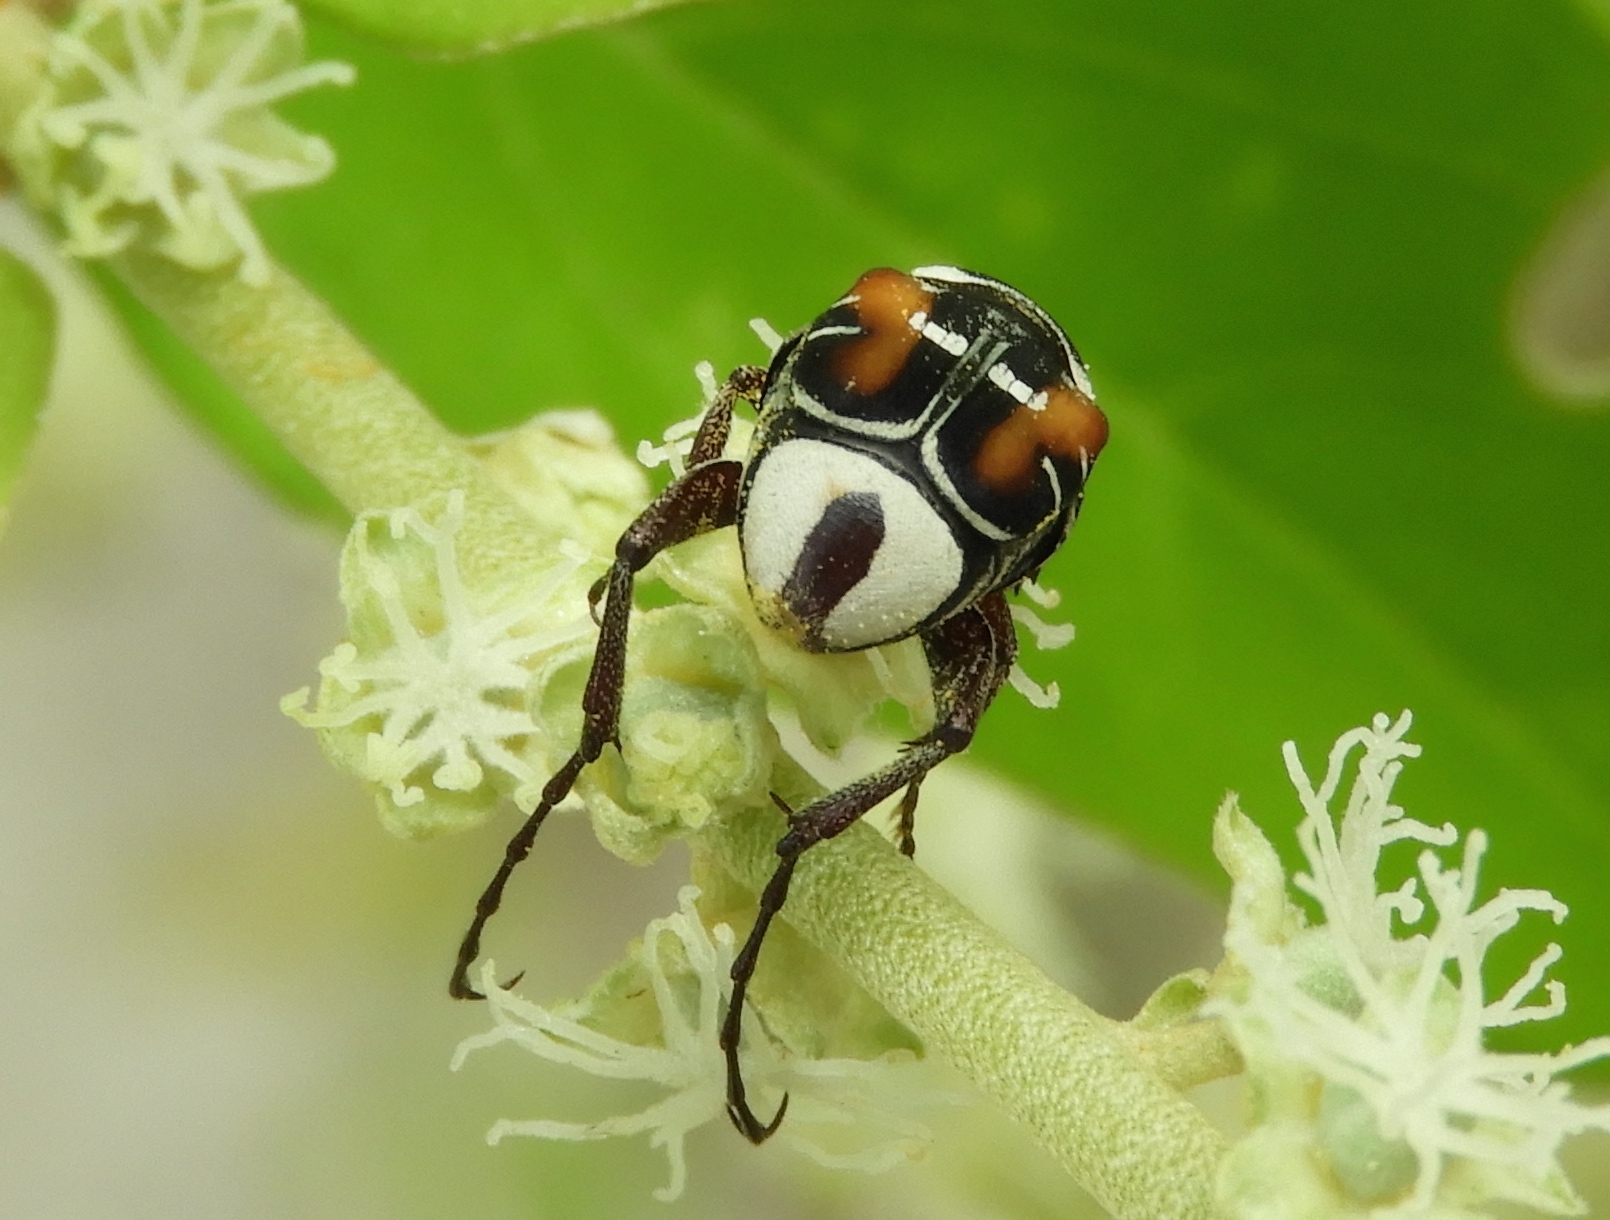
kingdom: Animalia
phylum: Arthropoda
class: Insecta
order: Coleoptera
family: Scarabaeidae
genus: Trigonopeltastes
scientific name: Trigonopeltastes archimedes
